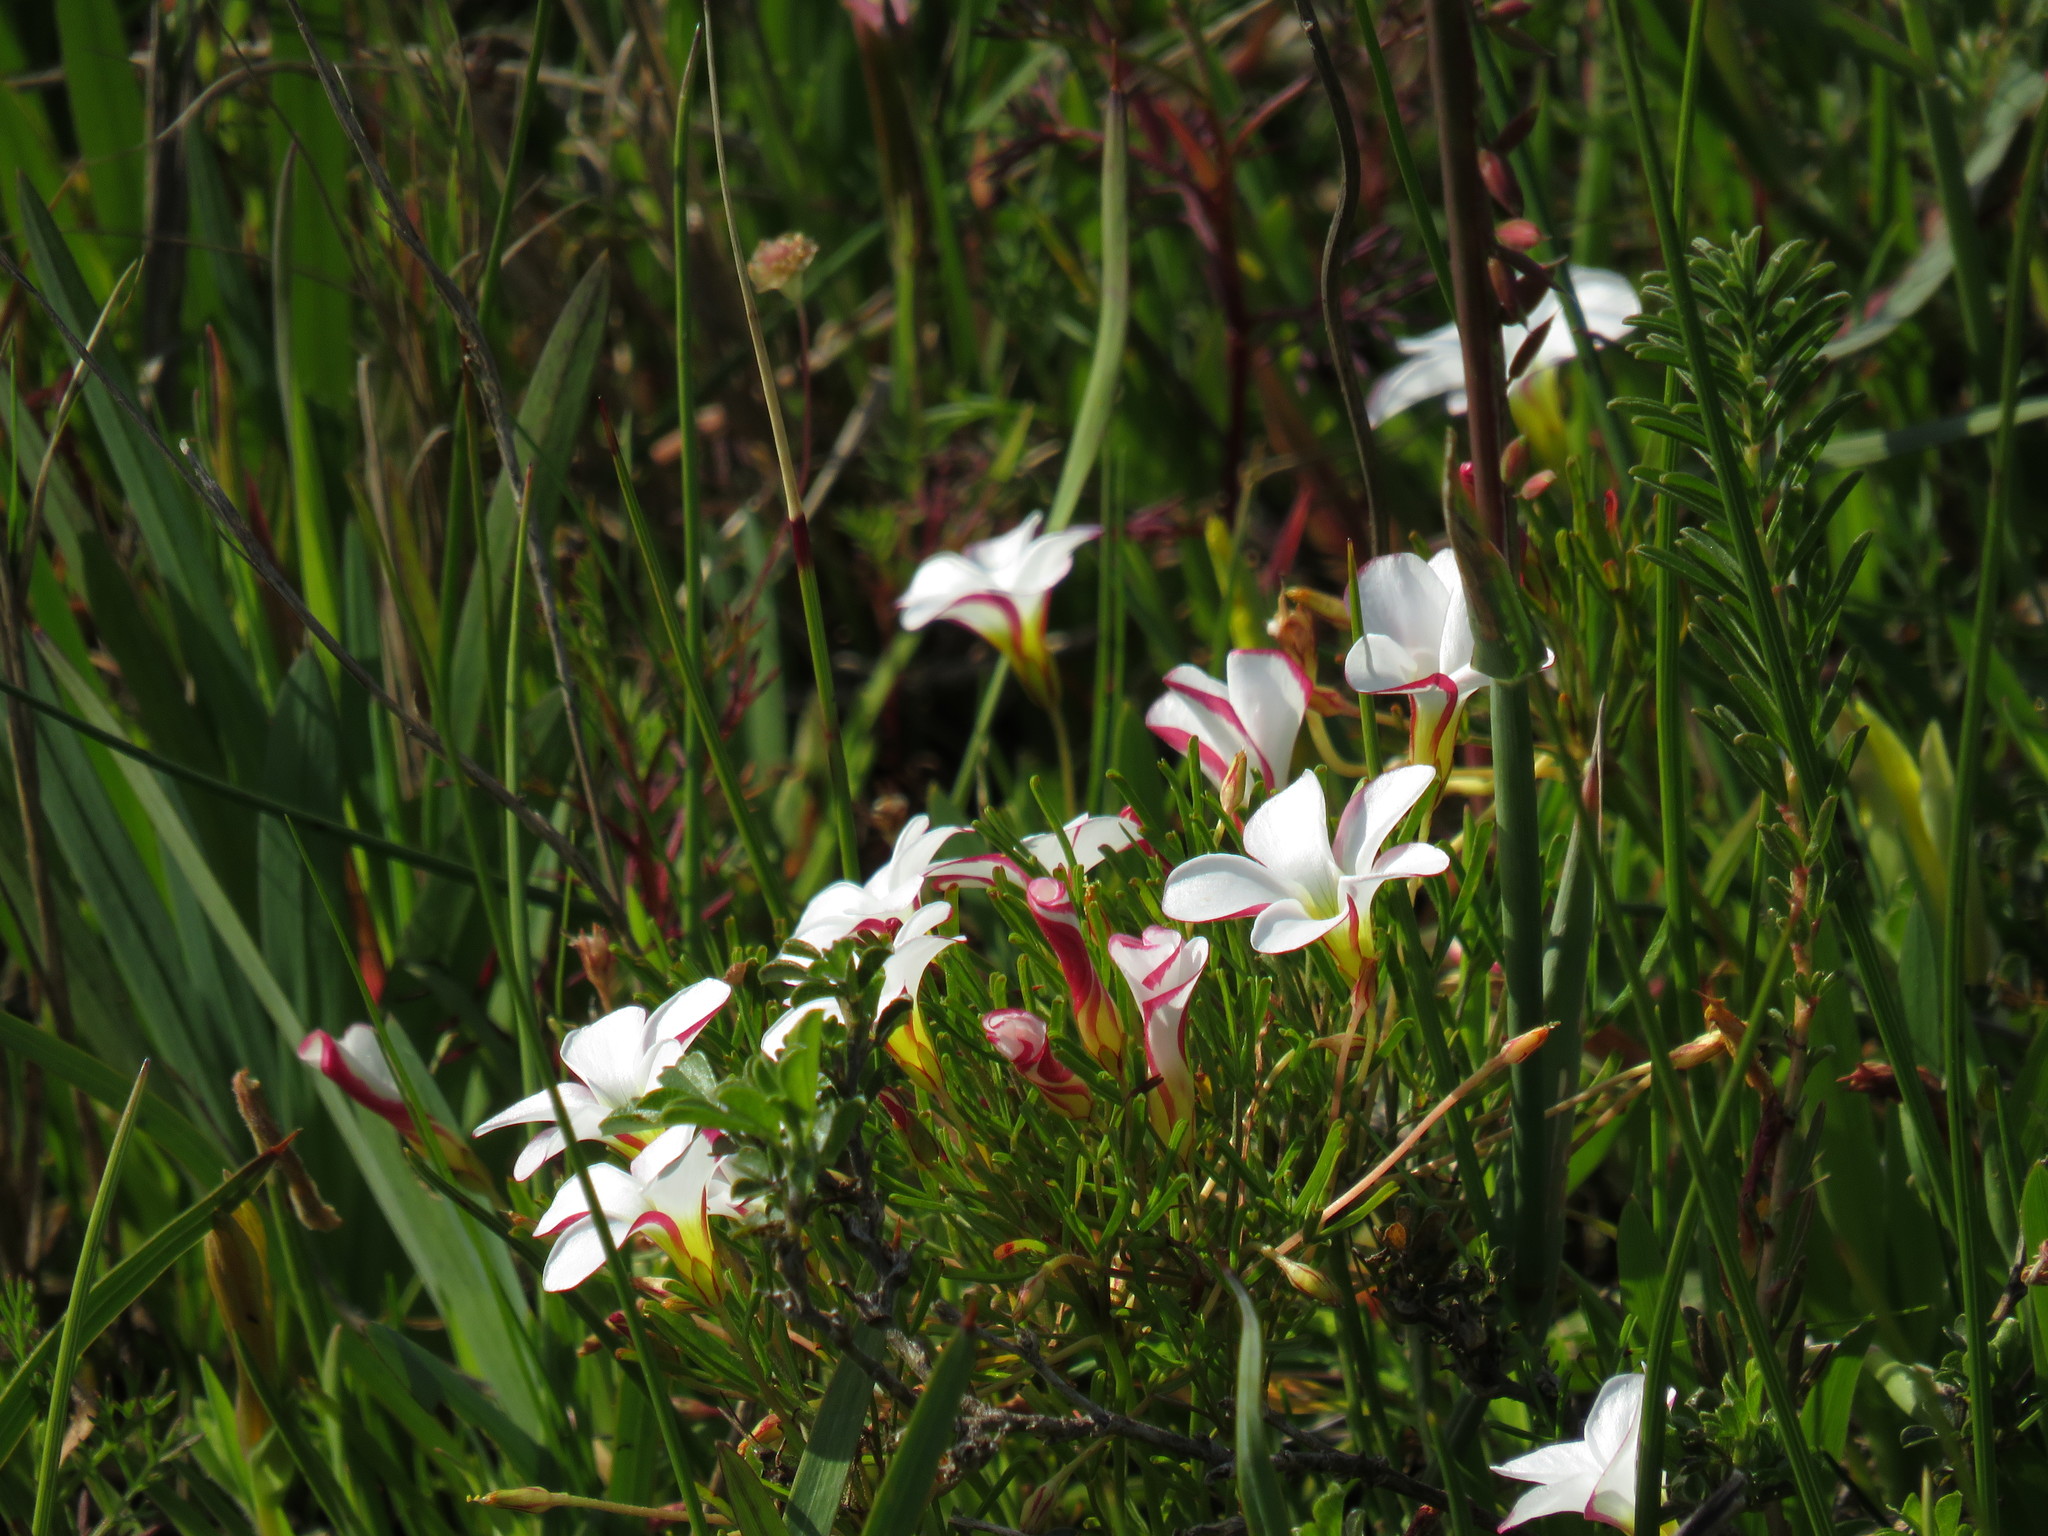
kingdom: Plantae
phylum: Tracheophyta
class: Magnoliopsida
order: Oxalidales
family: Oxalidaceae
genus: Oxalis
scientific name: Oxalis versicolor
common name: Peppermint rock oxalis
